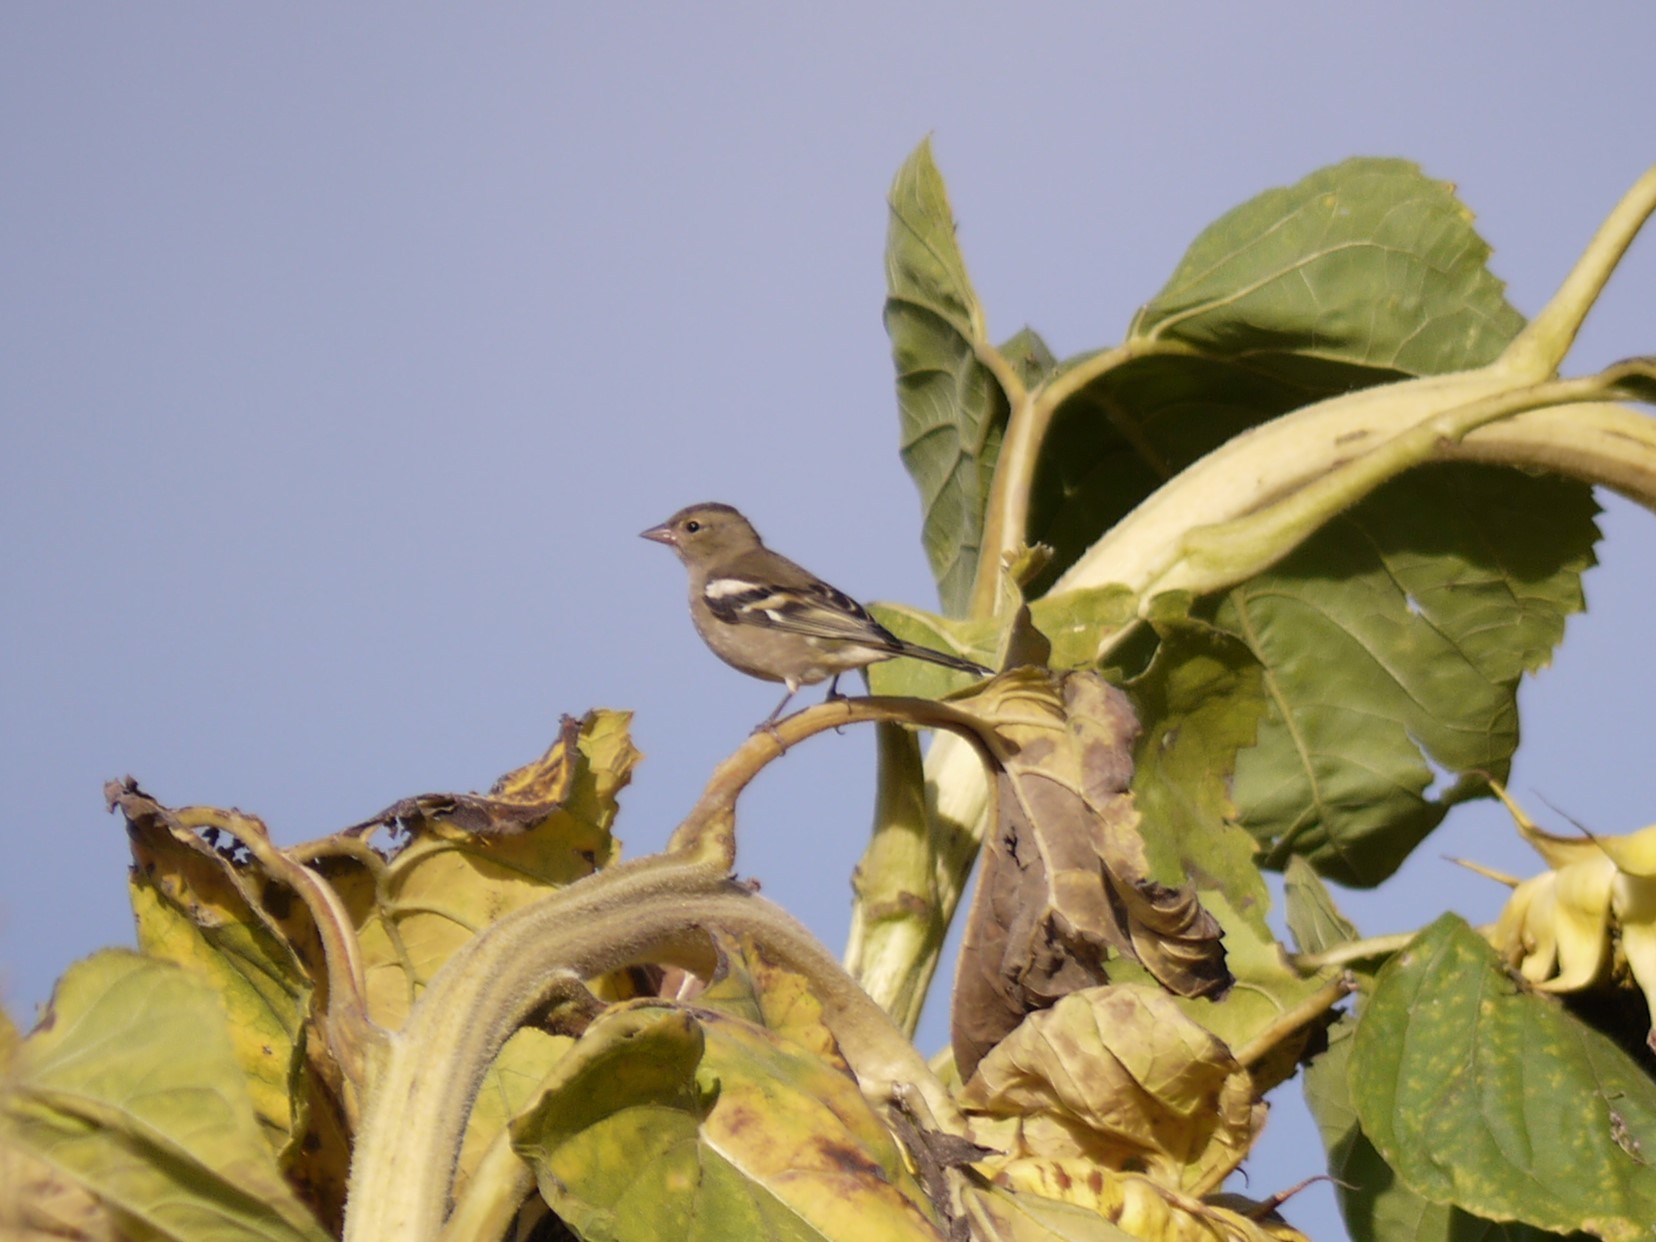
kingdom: Animalia
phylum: Chordata
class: Aves
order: Passeriformes
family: Fringillidae
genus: Fringilla
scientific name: Fringilla coelebs
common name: Common chaffinch
